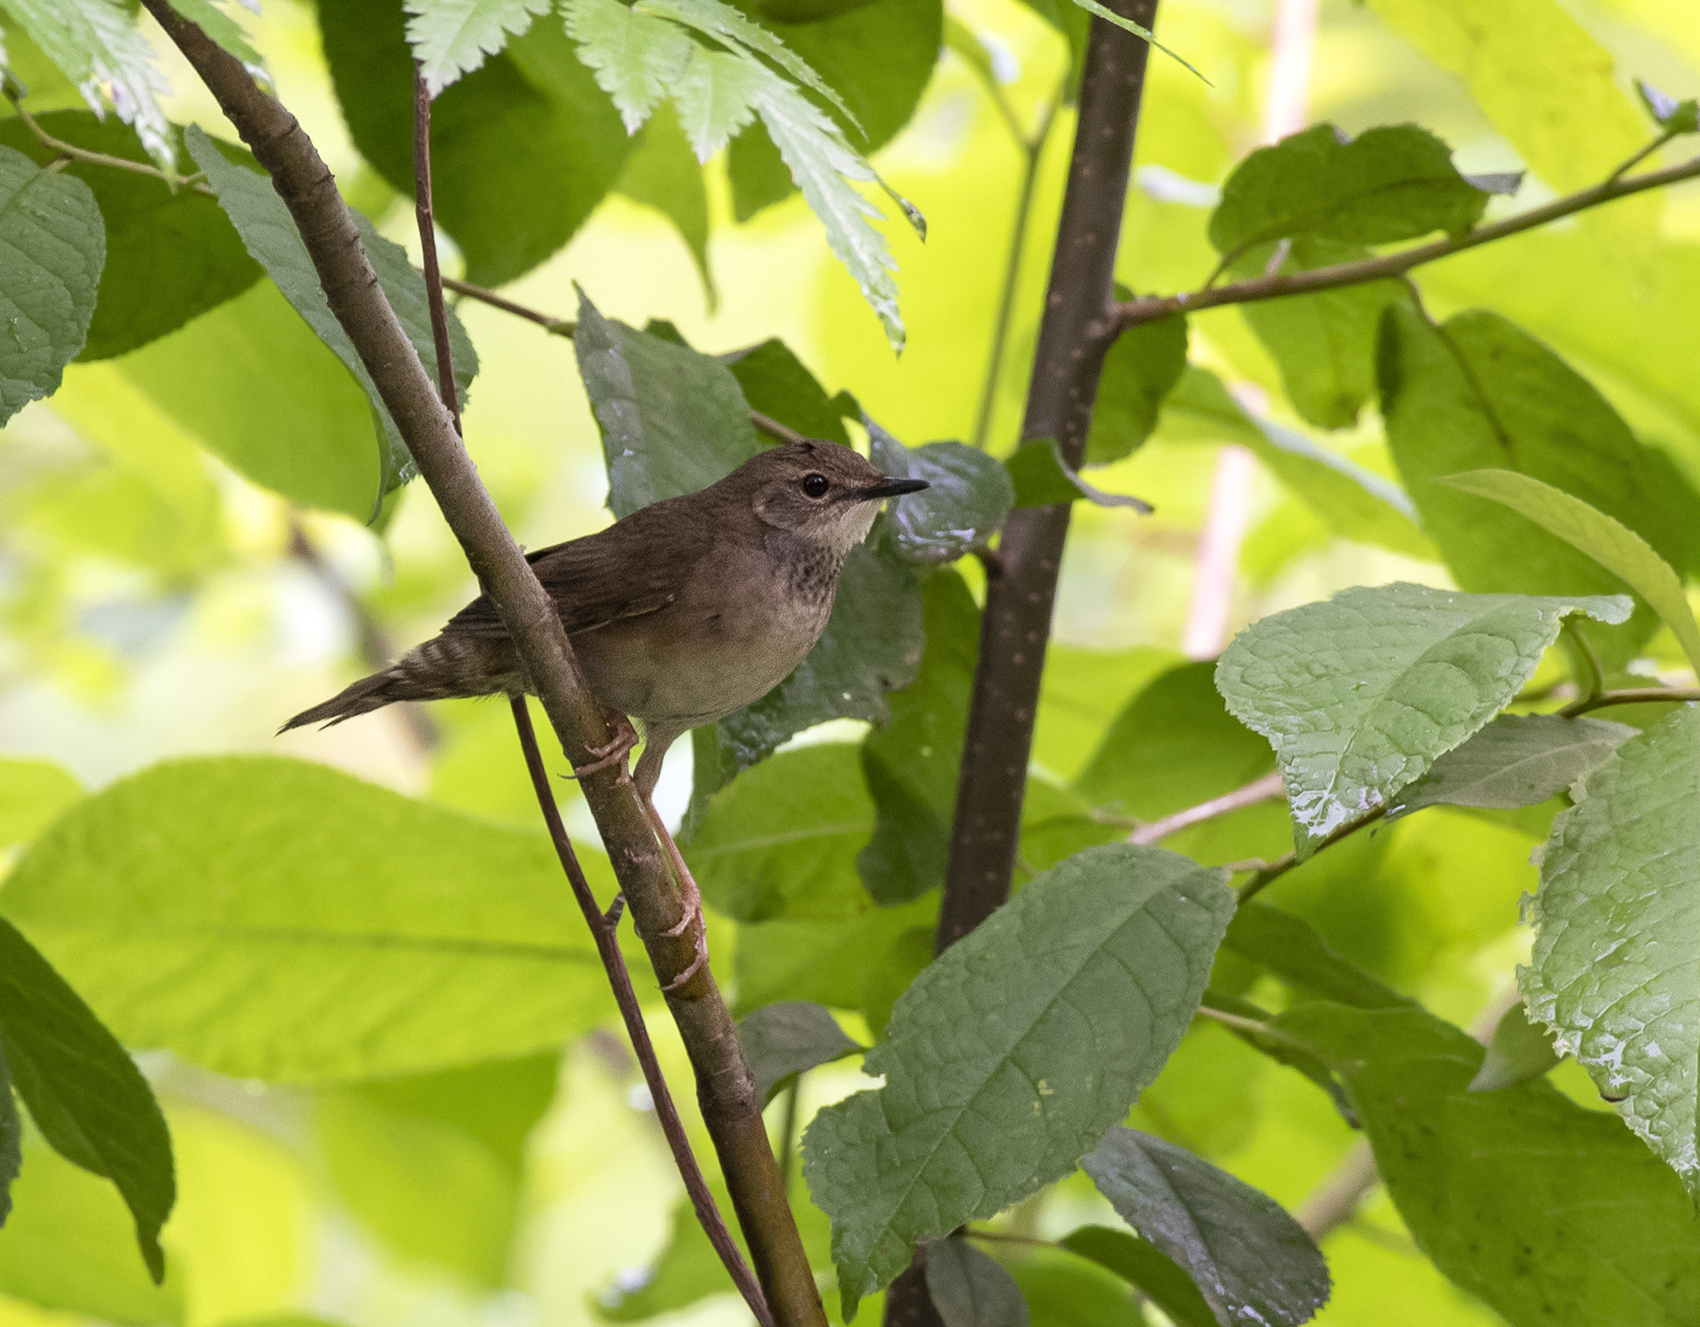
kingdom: Animalia
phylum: Chordata
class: Aves
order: Passeriformes
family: Locustellidae
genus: Locustella
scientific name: Locustella davidi
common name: Baikal bush warbler
